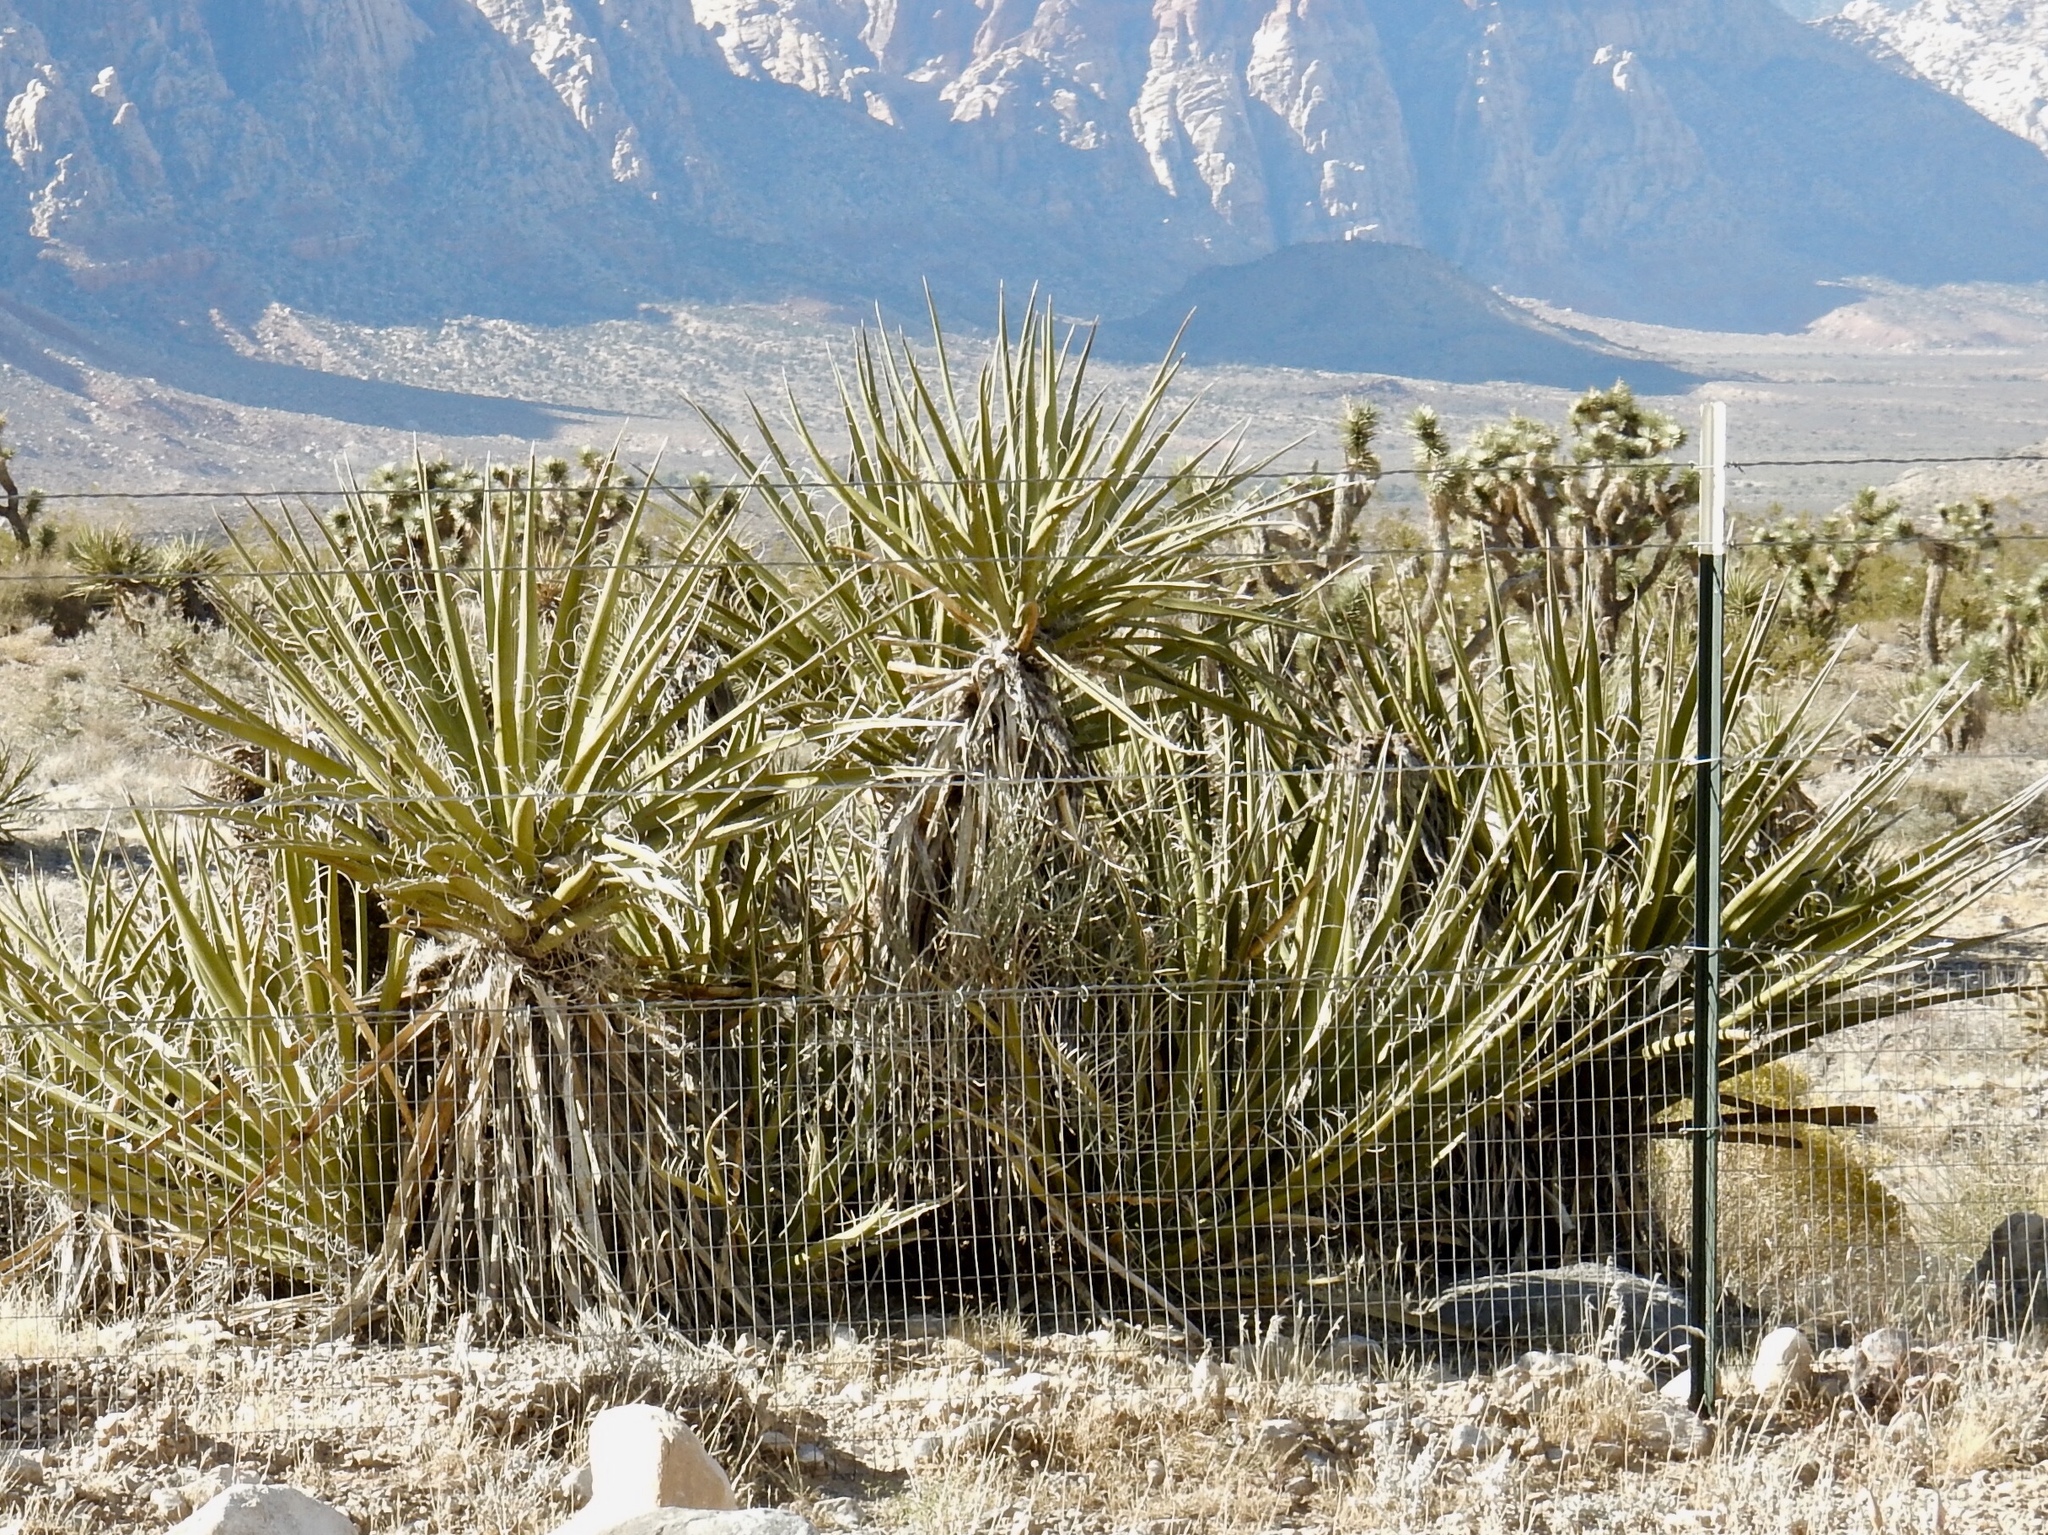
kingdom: Plantae
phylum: Tracheophyta
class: Liliopsida
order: Asparagales
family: Asparagaceae
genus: Yucca
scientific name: Yucca schidigera
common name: Mojave yucca
